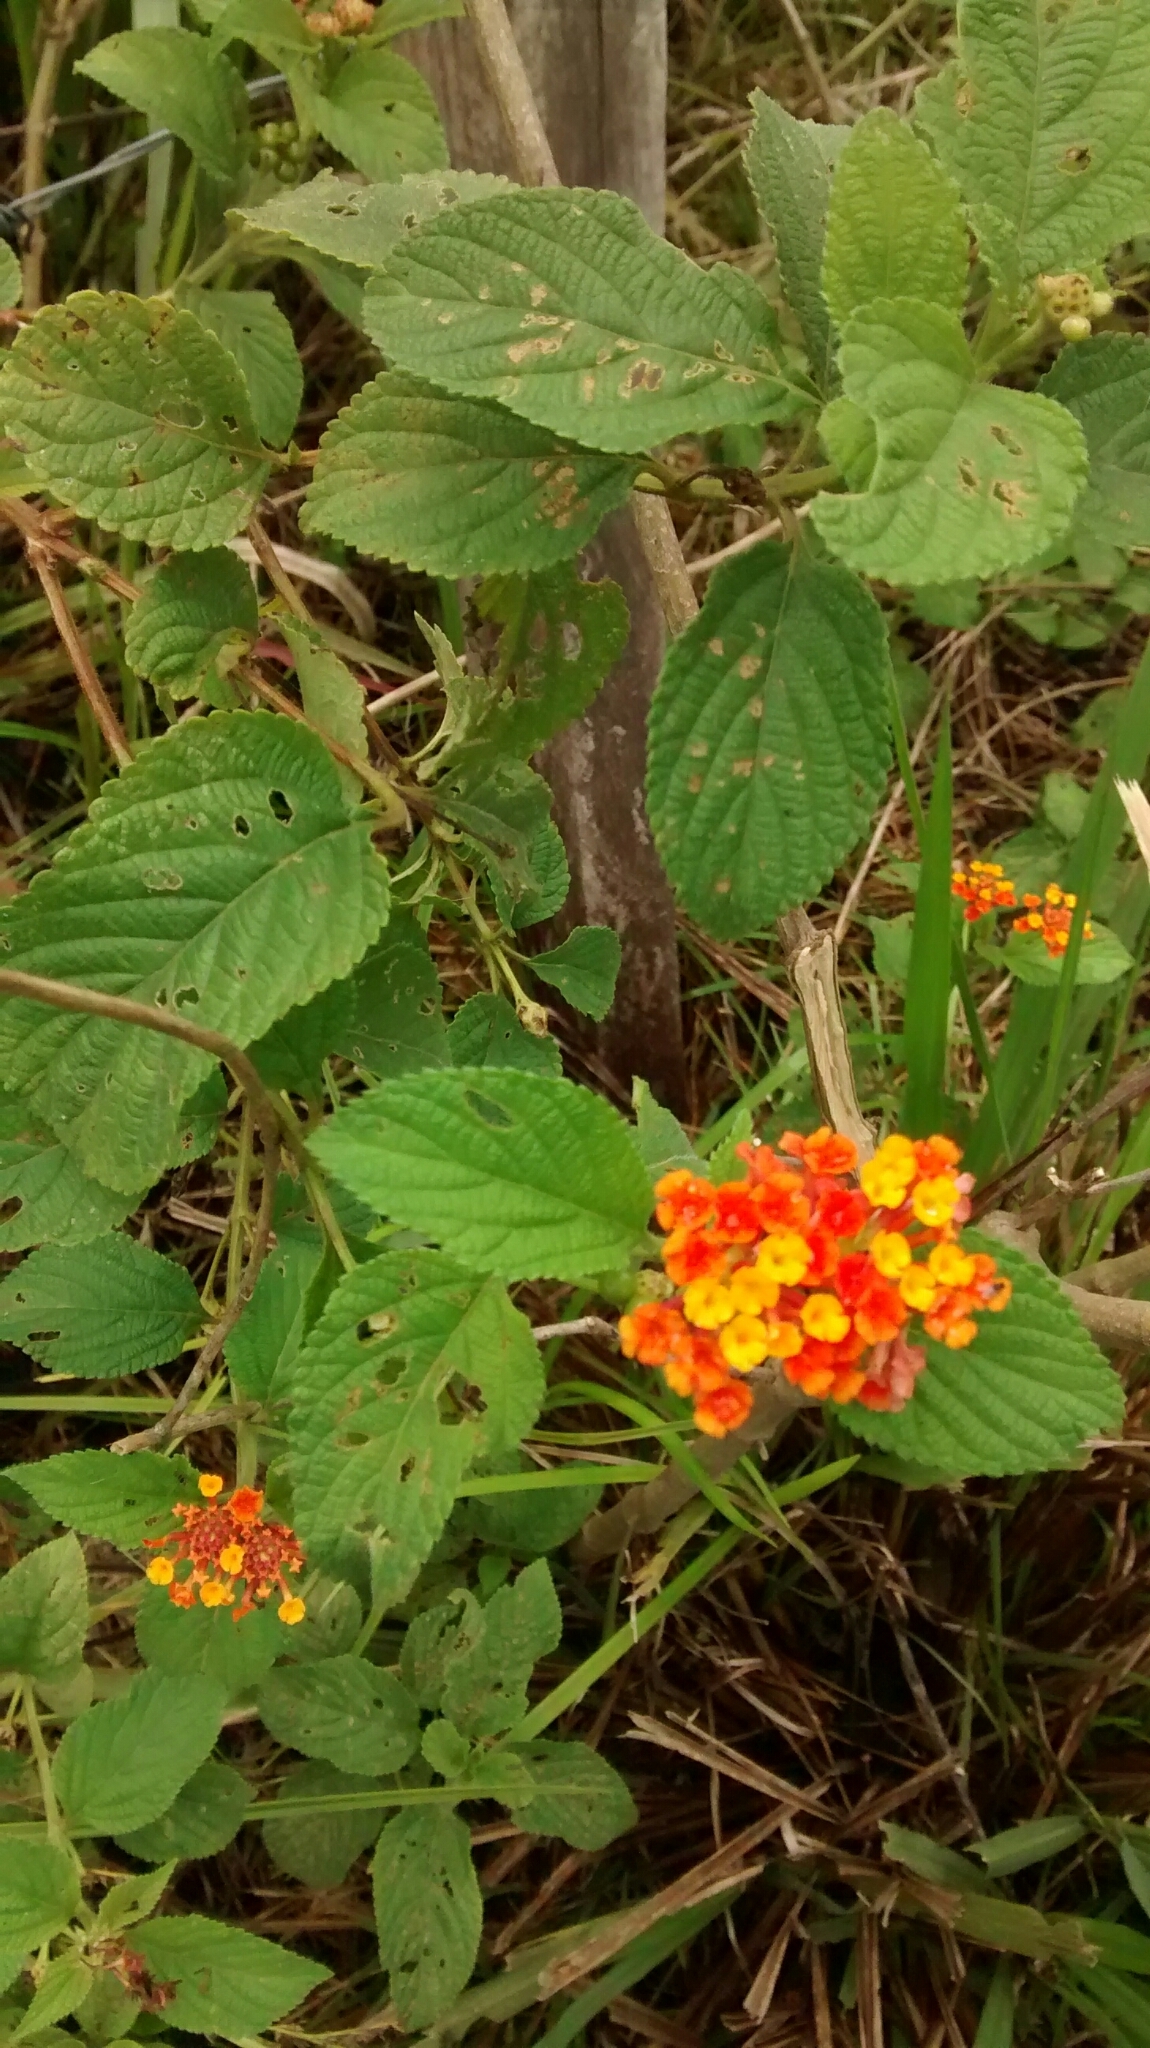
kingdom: Plantae
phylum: Tracheophyta
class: Magnoliopsida
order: Lamiales
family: Verbenaceae
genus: Lantana
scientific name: Lantana camara
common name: Lantana
